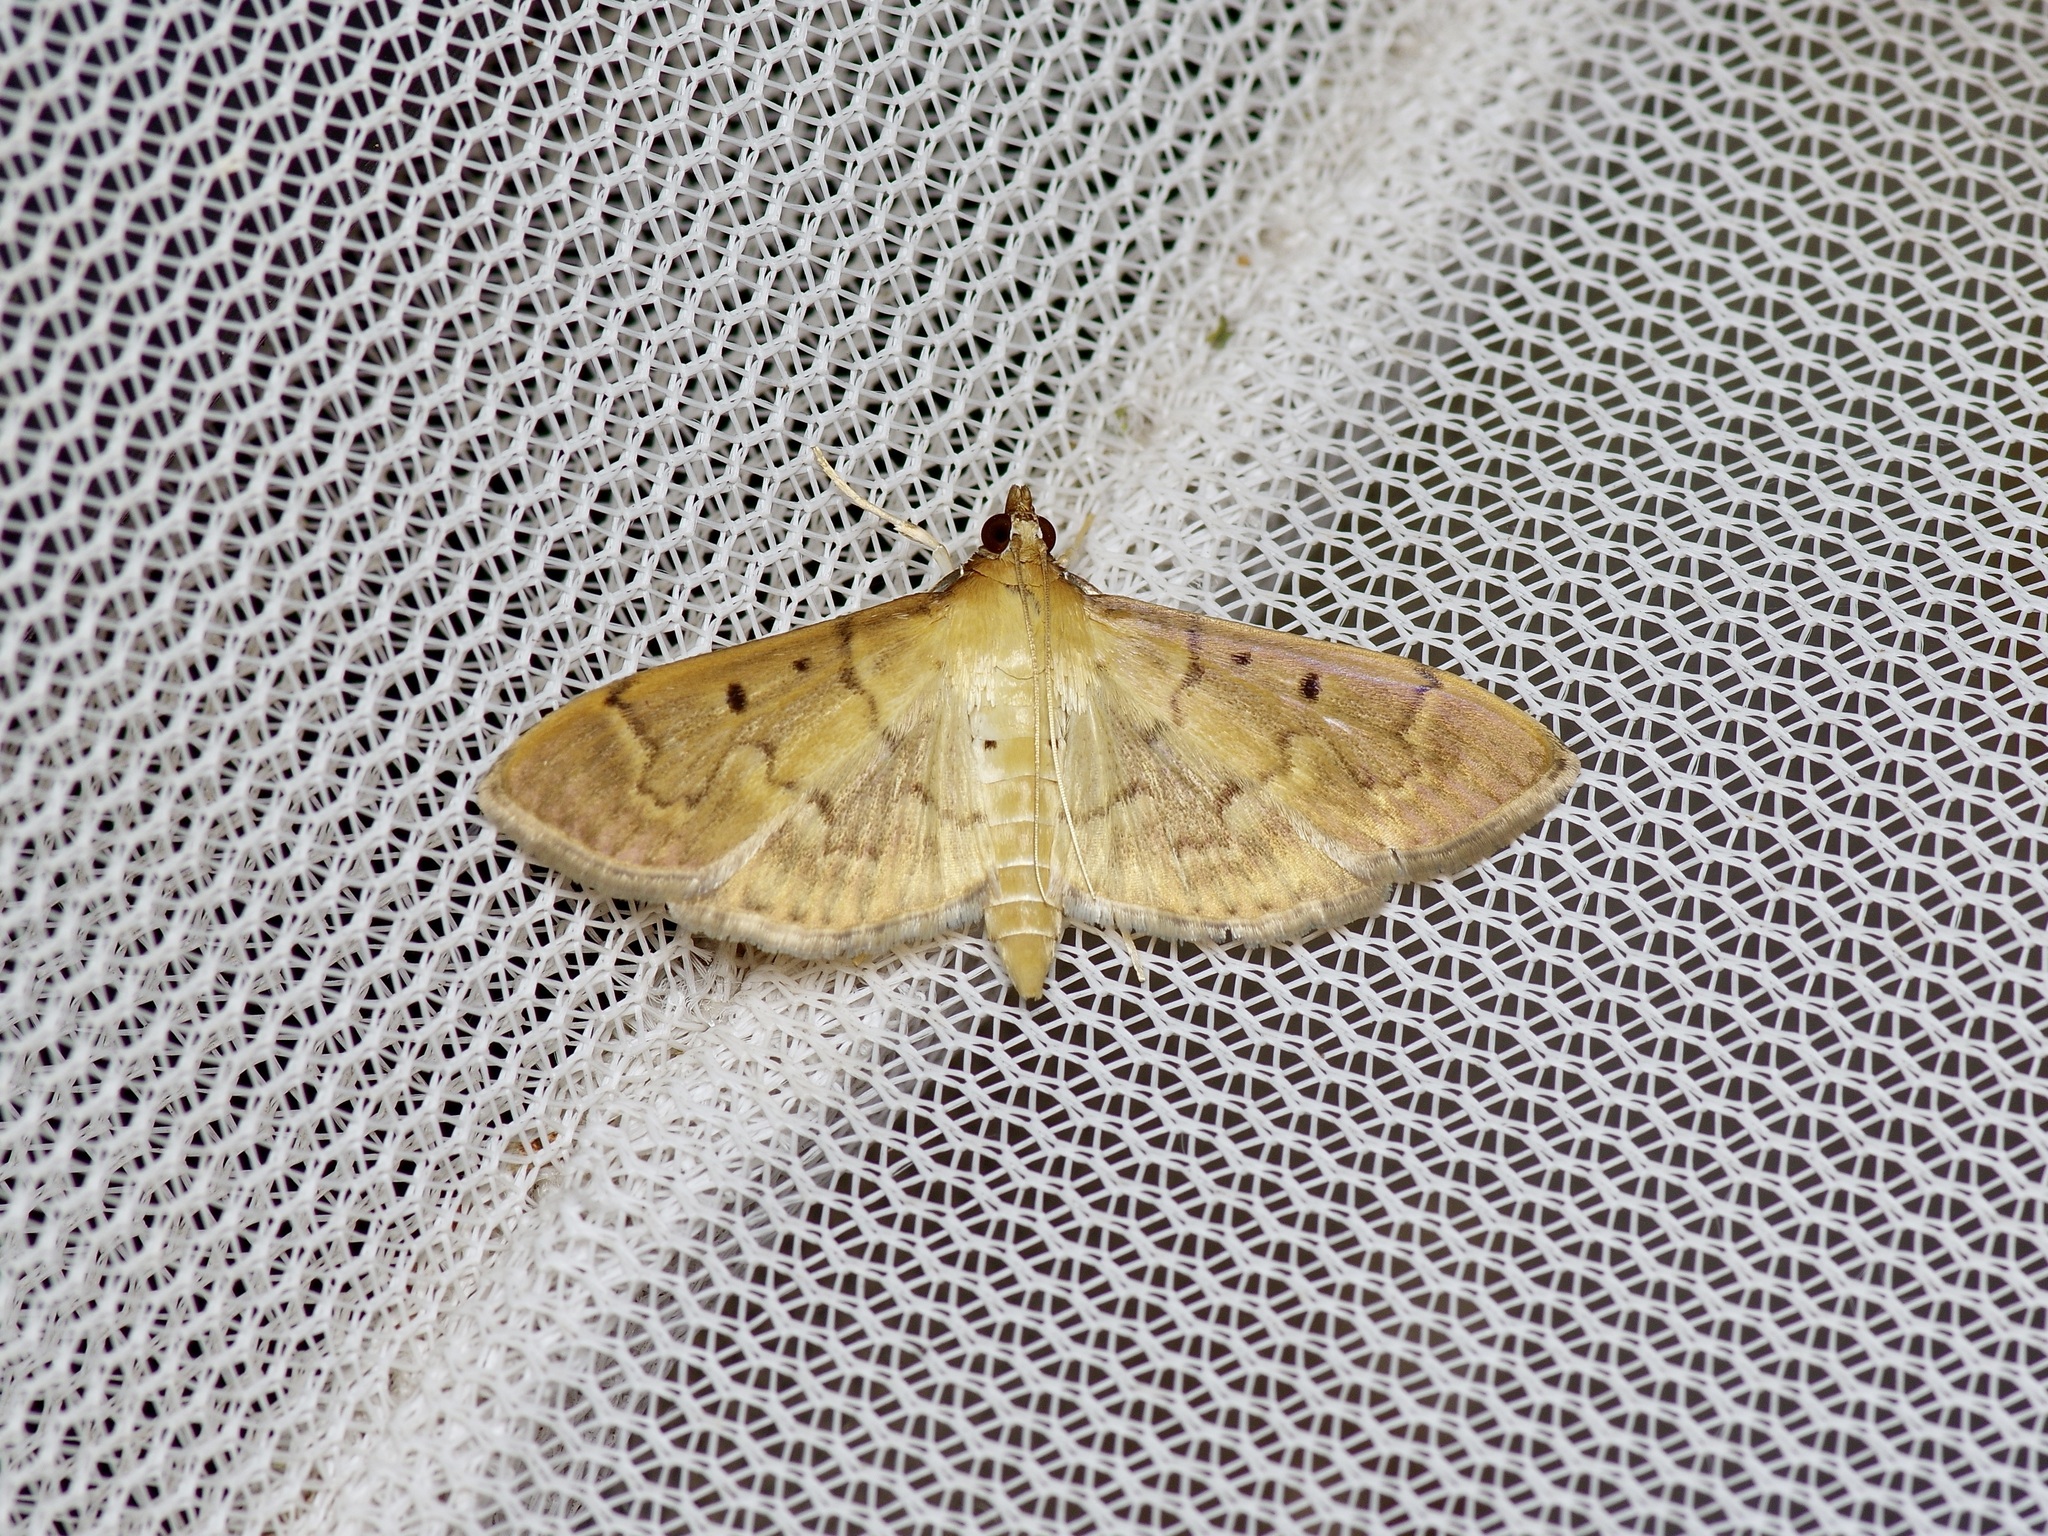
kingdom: Animalia
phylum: Arthropoda
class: Insecta
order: Lepidoptera
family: Crambidae
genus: Herpetogramma
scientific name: Herpetogramma bipunctalis
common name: Southern beet webworm
